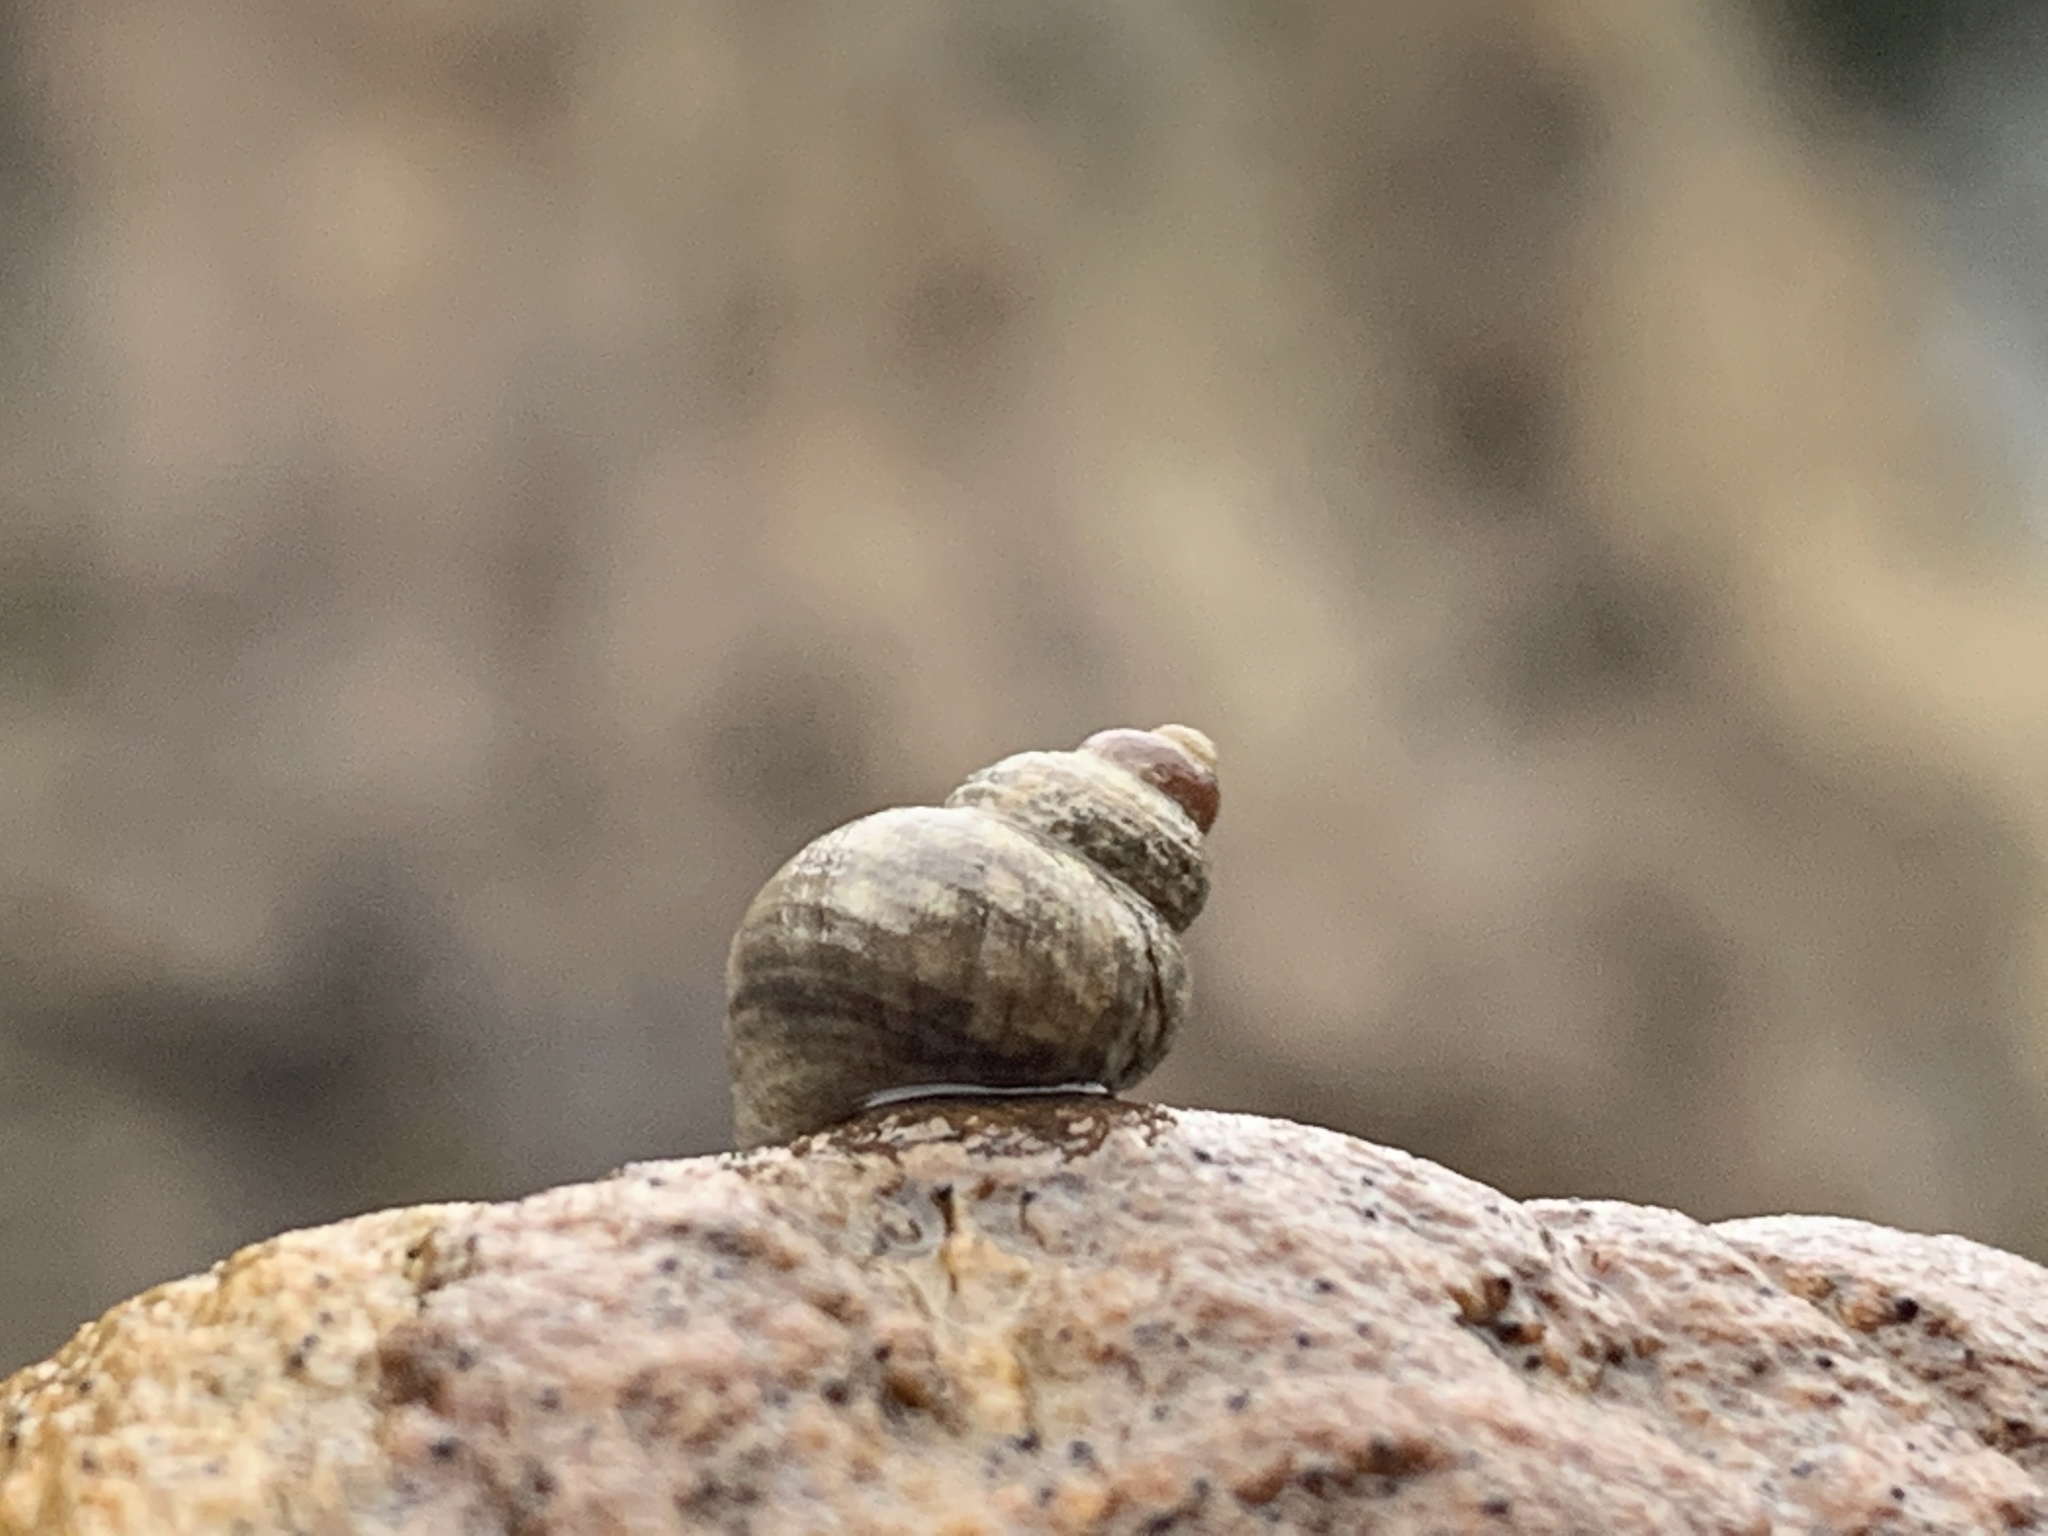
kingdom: Animalia
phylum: Mollusca
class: Gastropoda
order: Littorinimorpha
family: Littorinidae
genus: Littorina
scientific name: Littorina saxatilis
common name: Black-lined periwinkle
